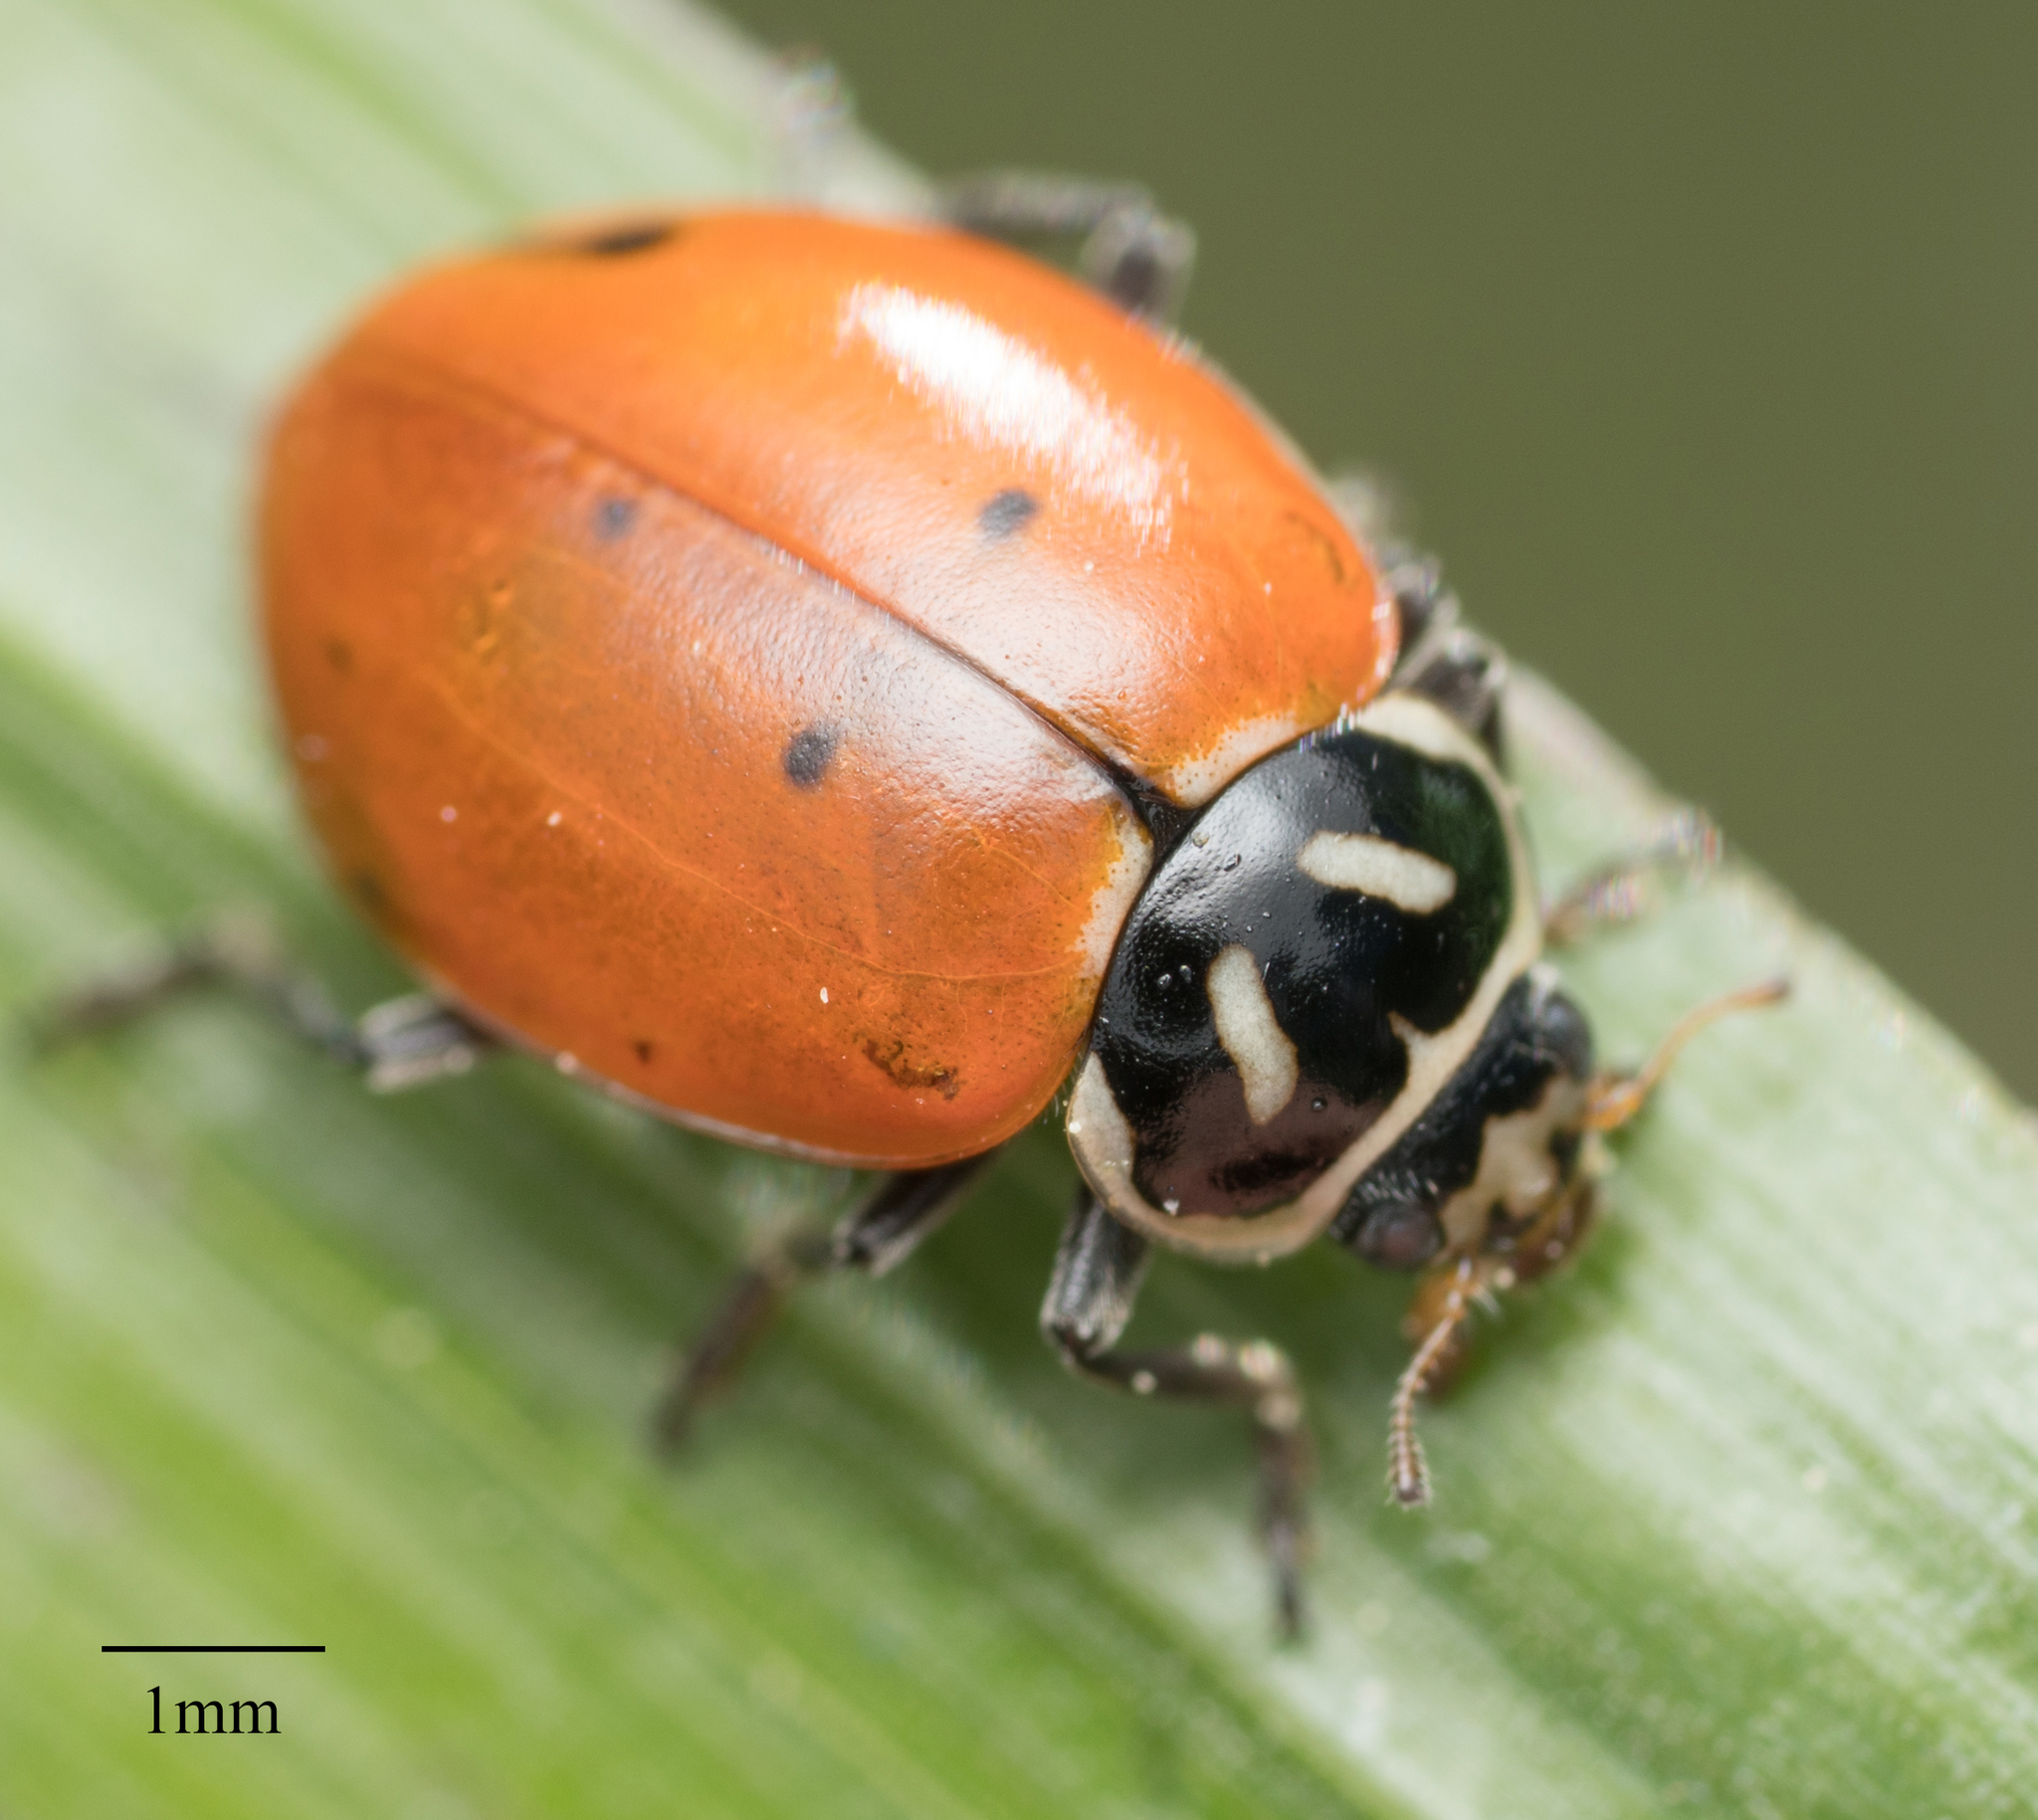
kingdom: Animalia
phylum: Arthropoda
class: Insecta
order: Coleoptera
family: Coccinellidae
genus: Hippodamia
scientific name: Hippodamia convergens
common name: Convergent lady beetle
